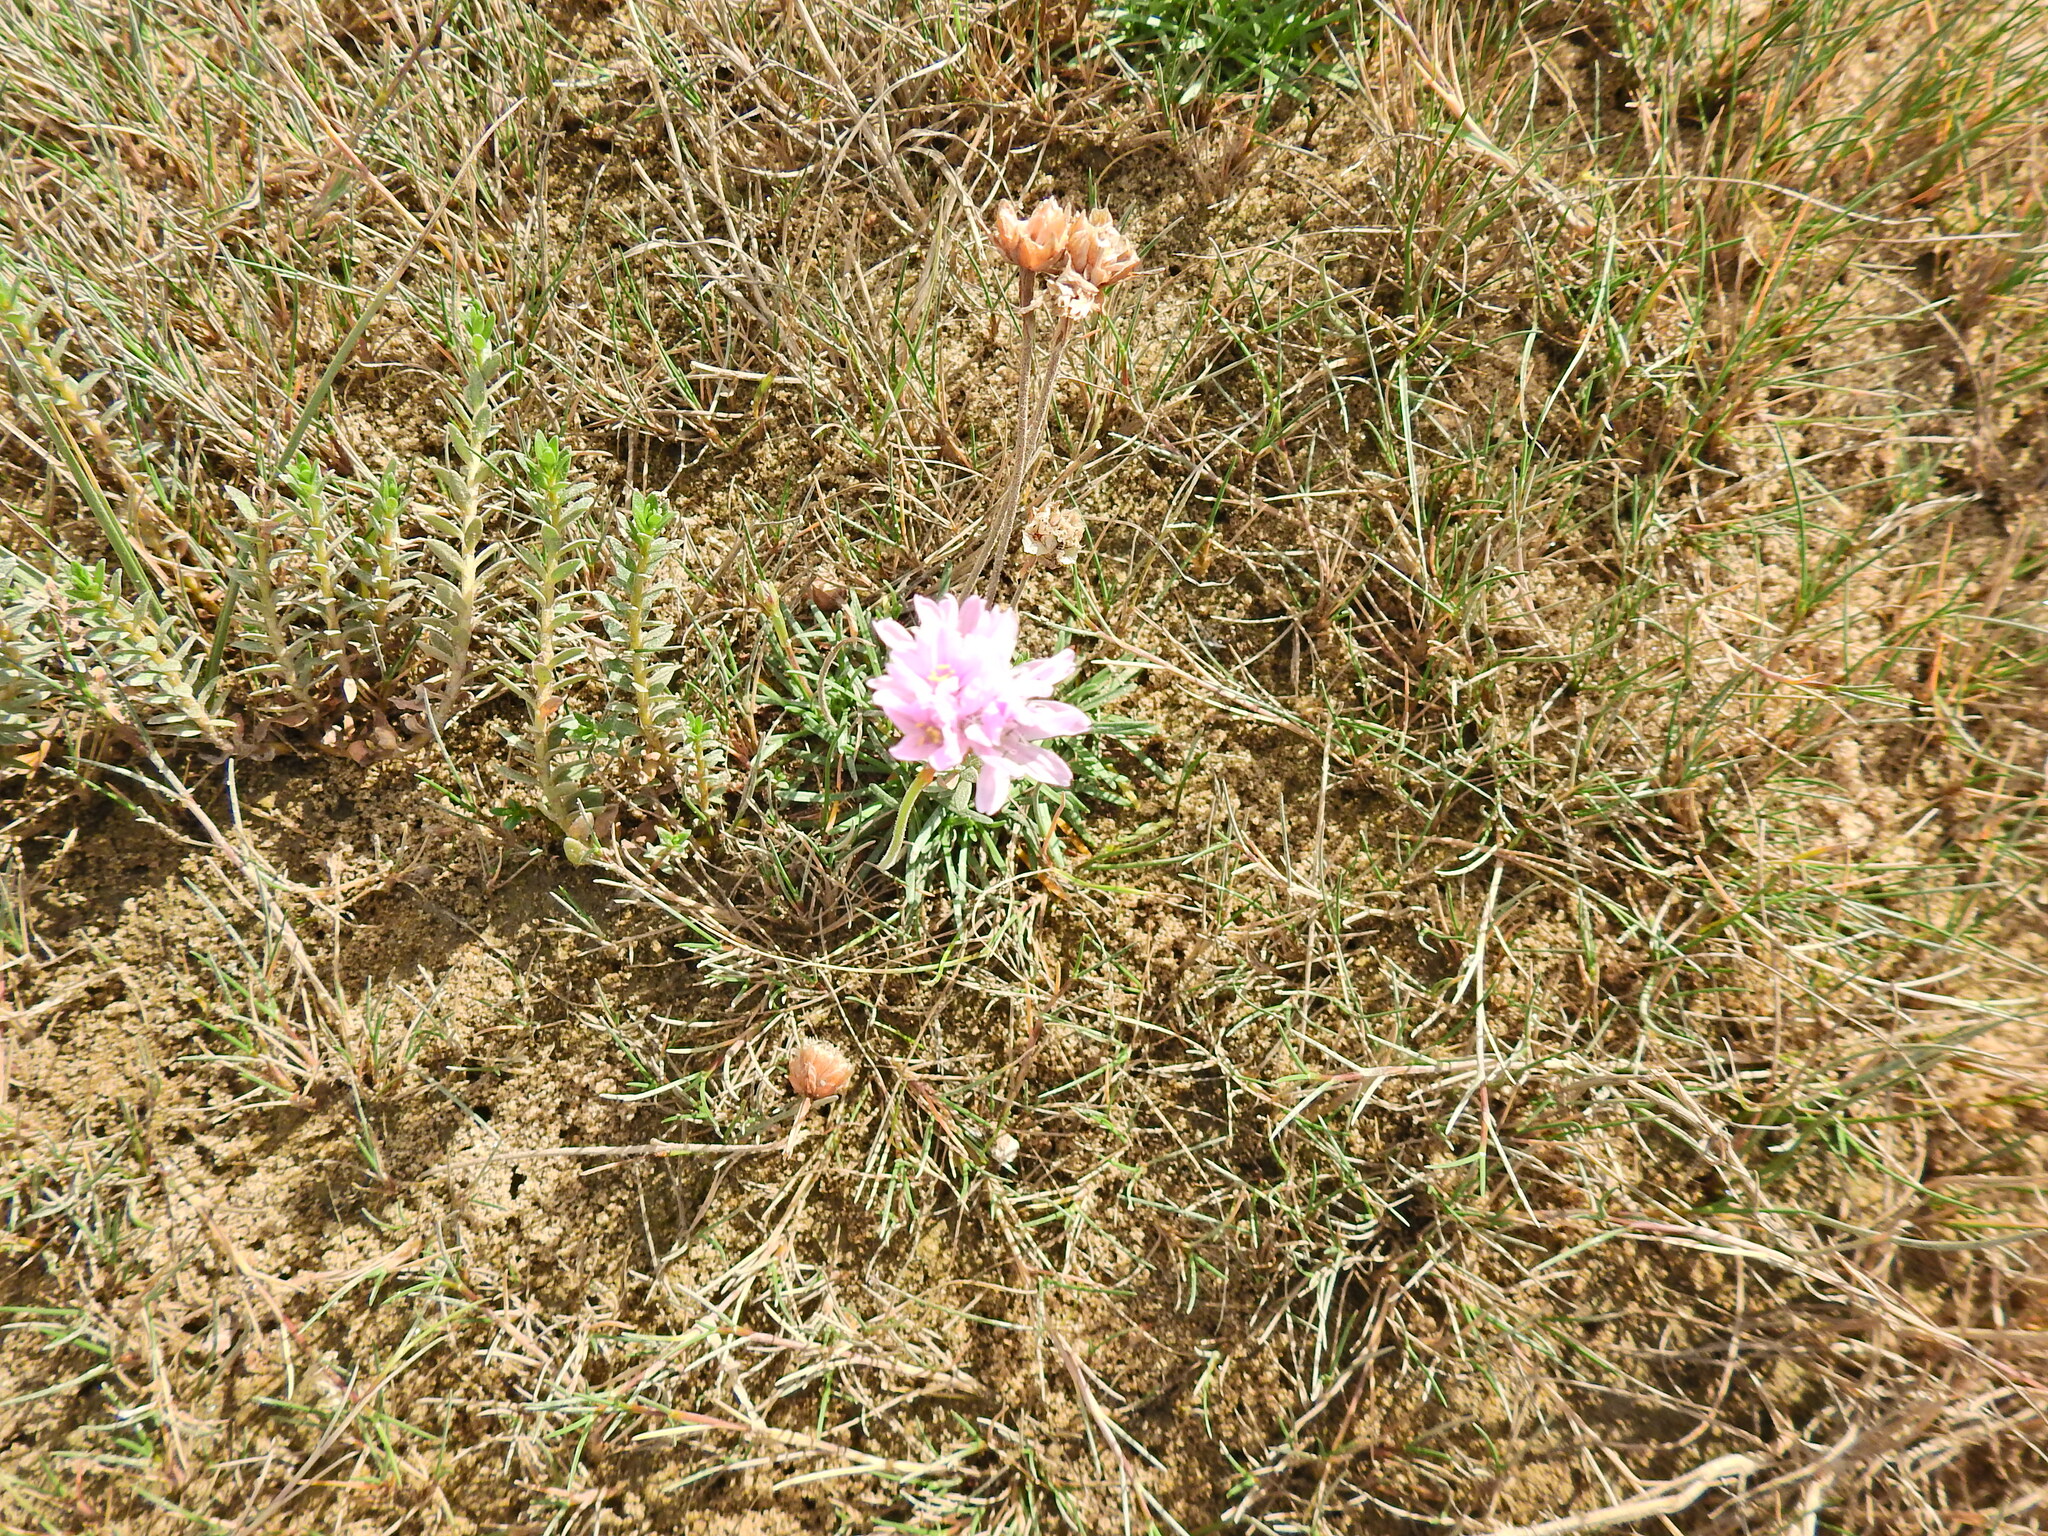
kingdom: Plantae
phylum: Tracheophyta
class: Magnoliopsida
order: Caryophyllales
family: Plumbaginaceae
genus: Armeria
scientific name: Armeria maritima
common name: Thrift
